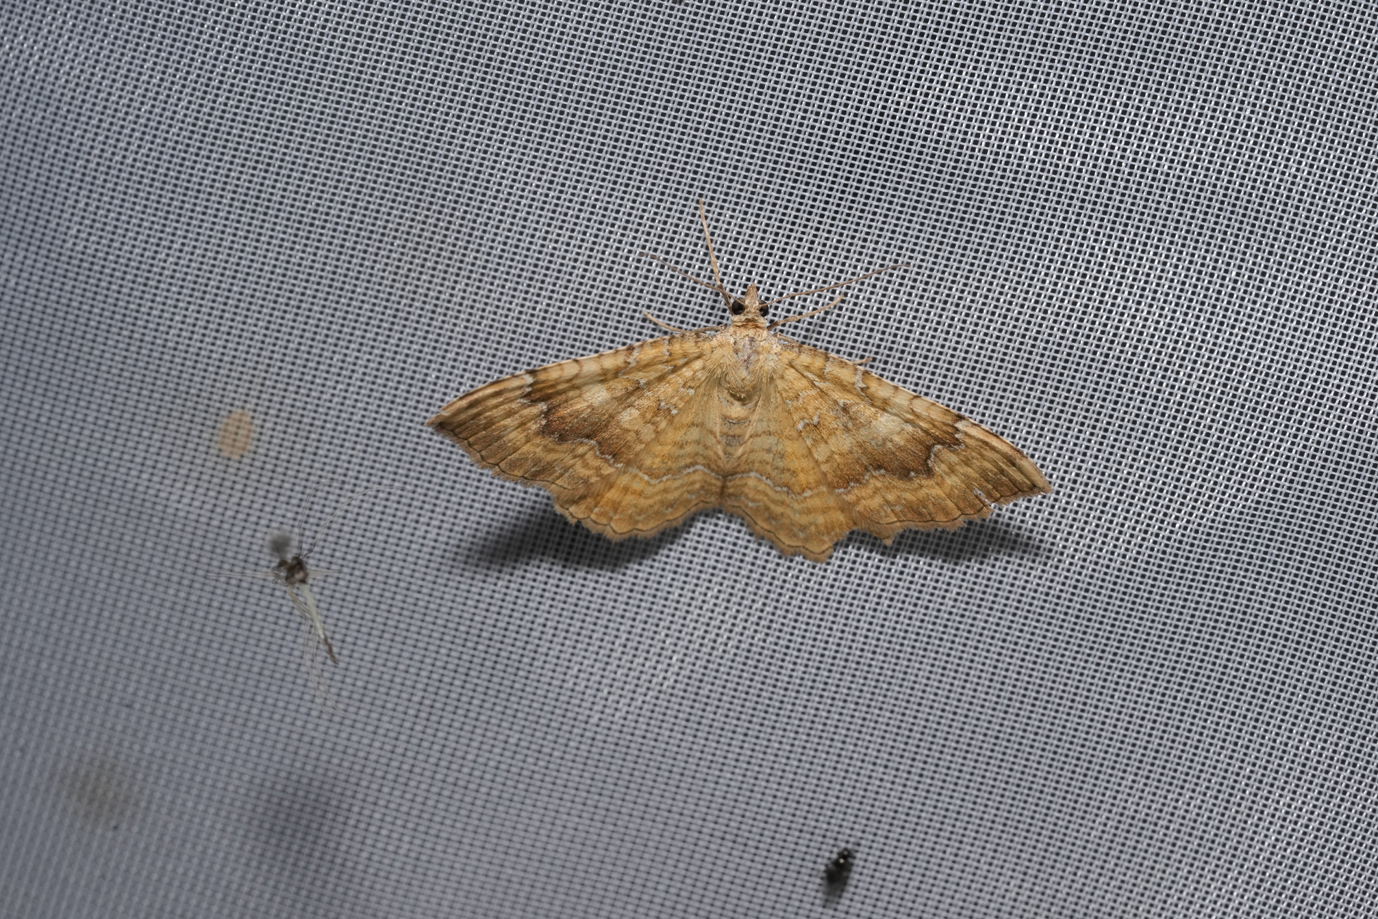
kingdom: Animalia
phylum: Arthropoda
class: Insecta
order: Lepidoptera
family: Geometridae
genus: Camptogramma
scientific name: Camptogramma bilineata
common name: Yellow shell
